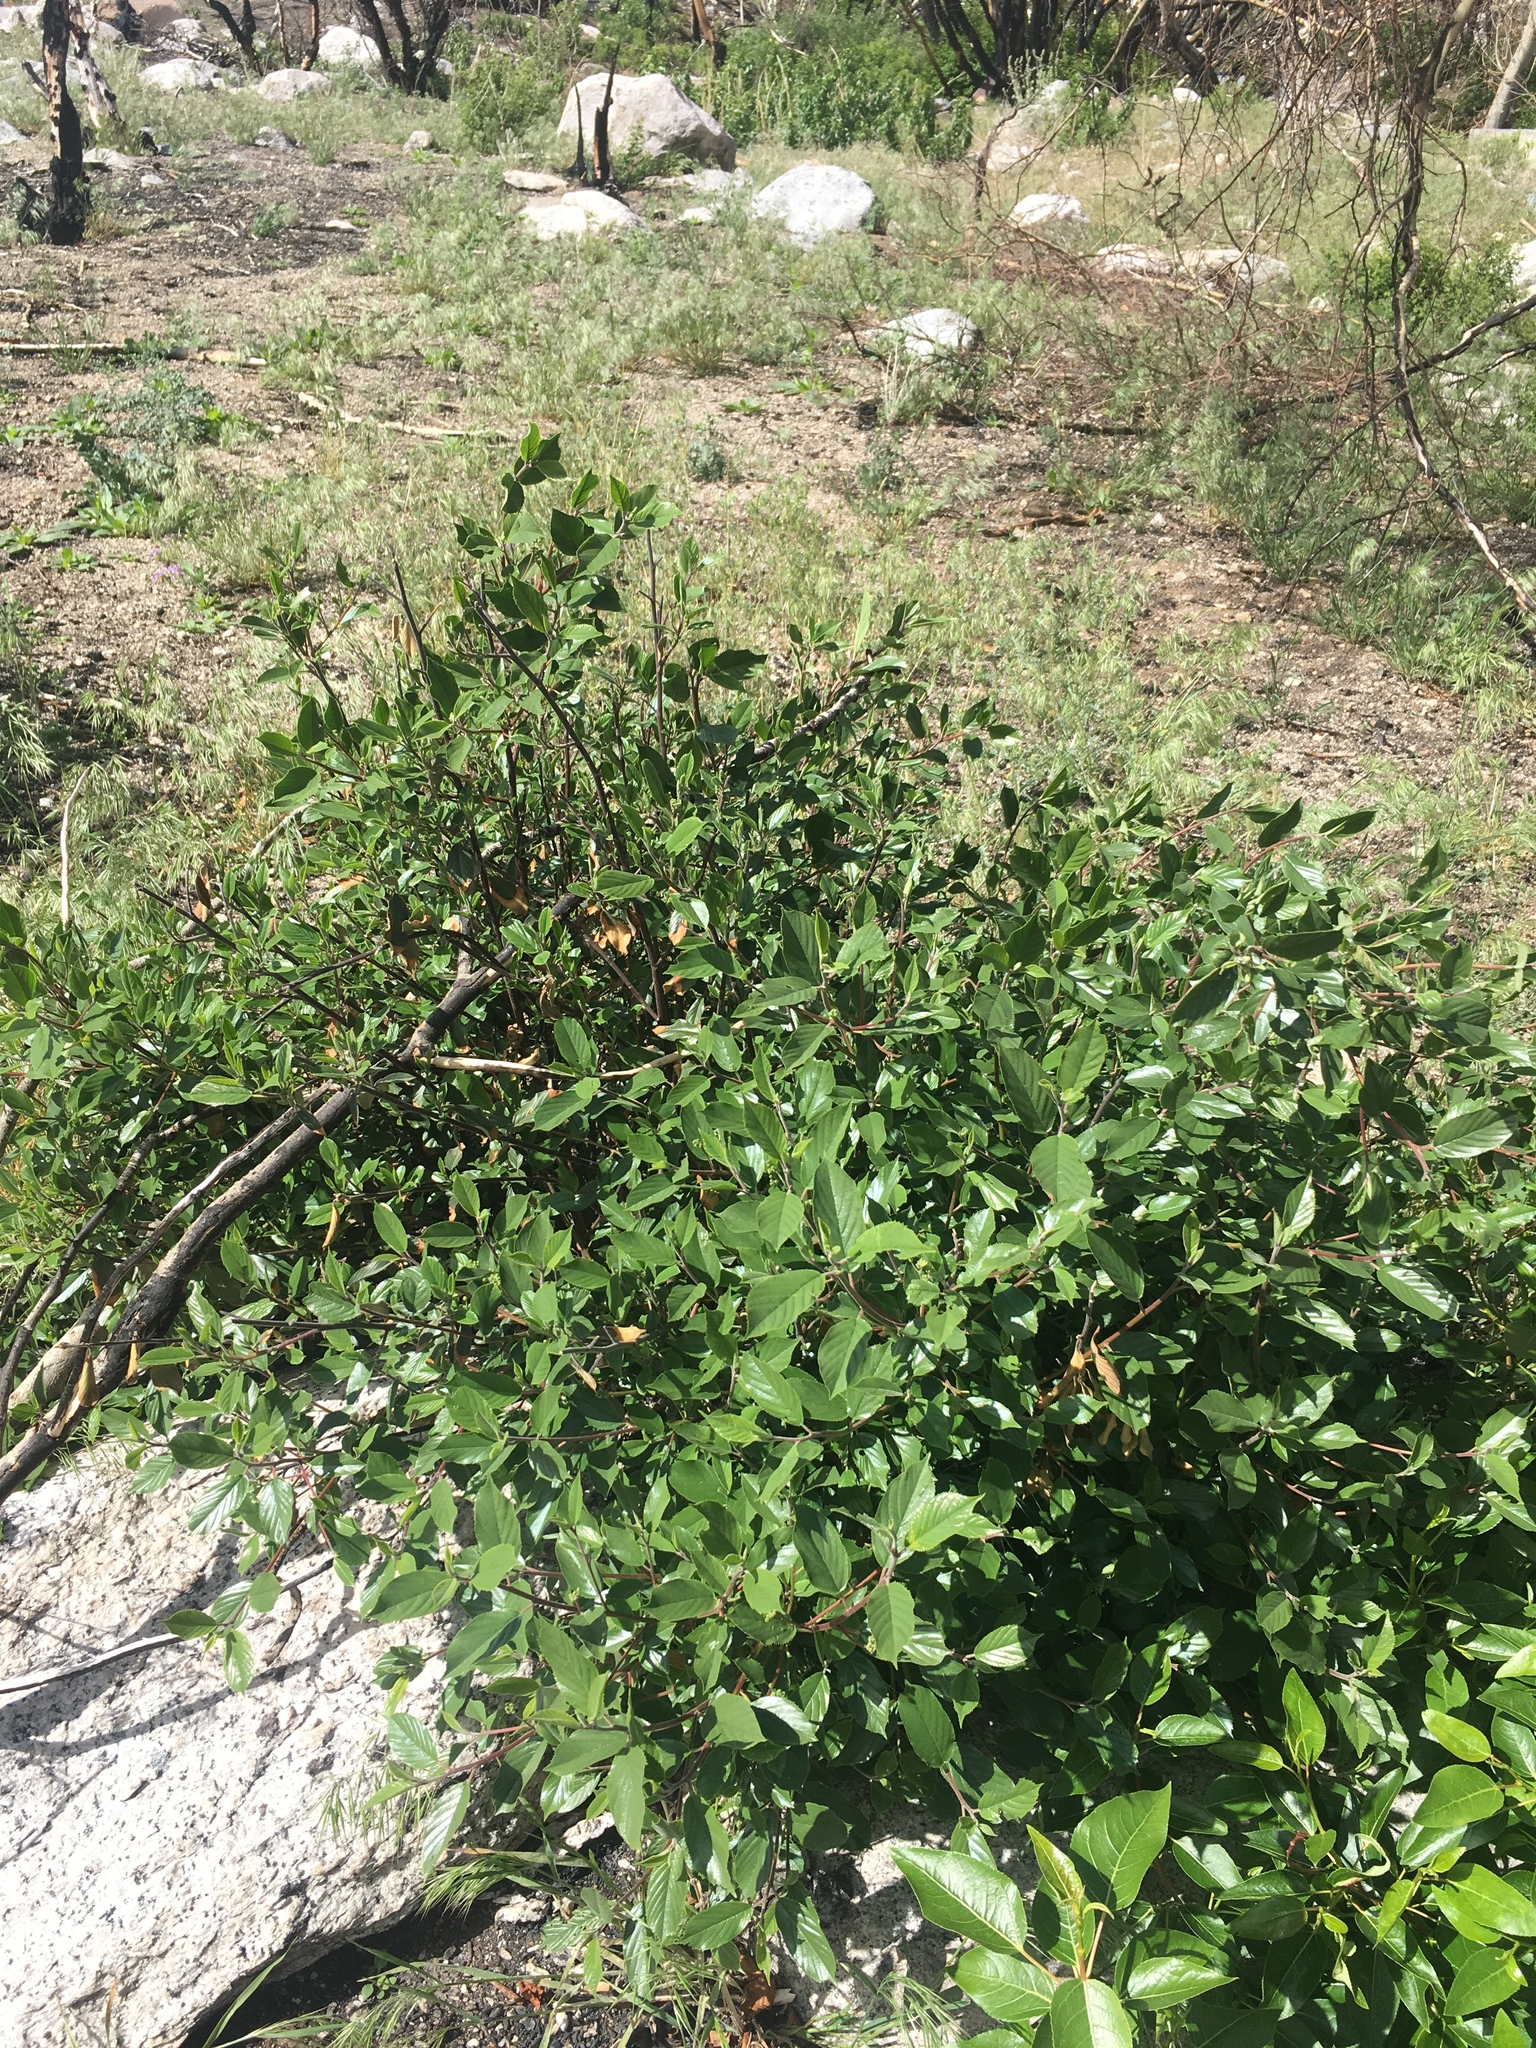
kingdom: Plantae
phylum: Tracheophyta
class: Magnoliopsida
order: Rosales
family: Rhamnaceae
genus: Frangula
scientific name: Frangula californica
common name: California buckthorn
